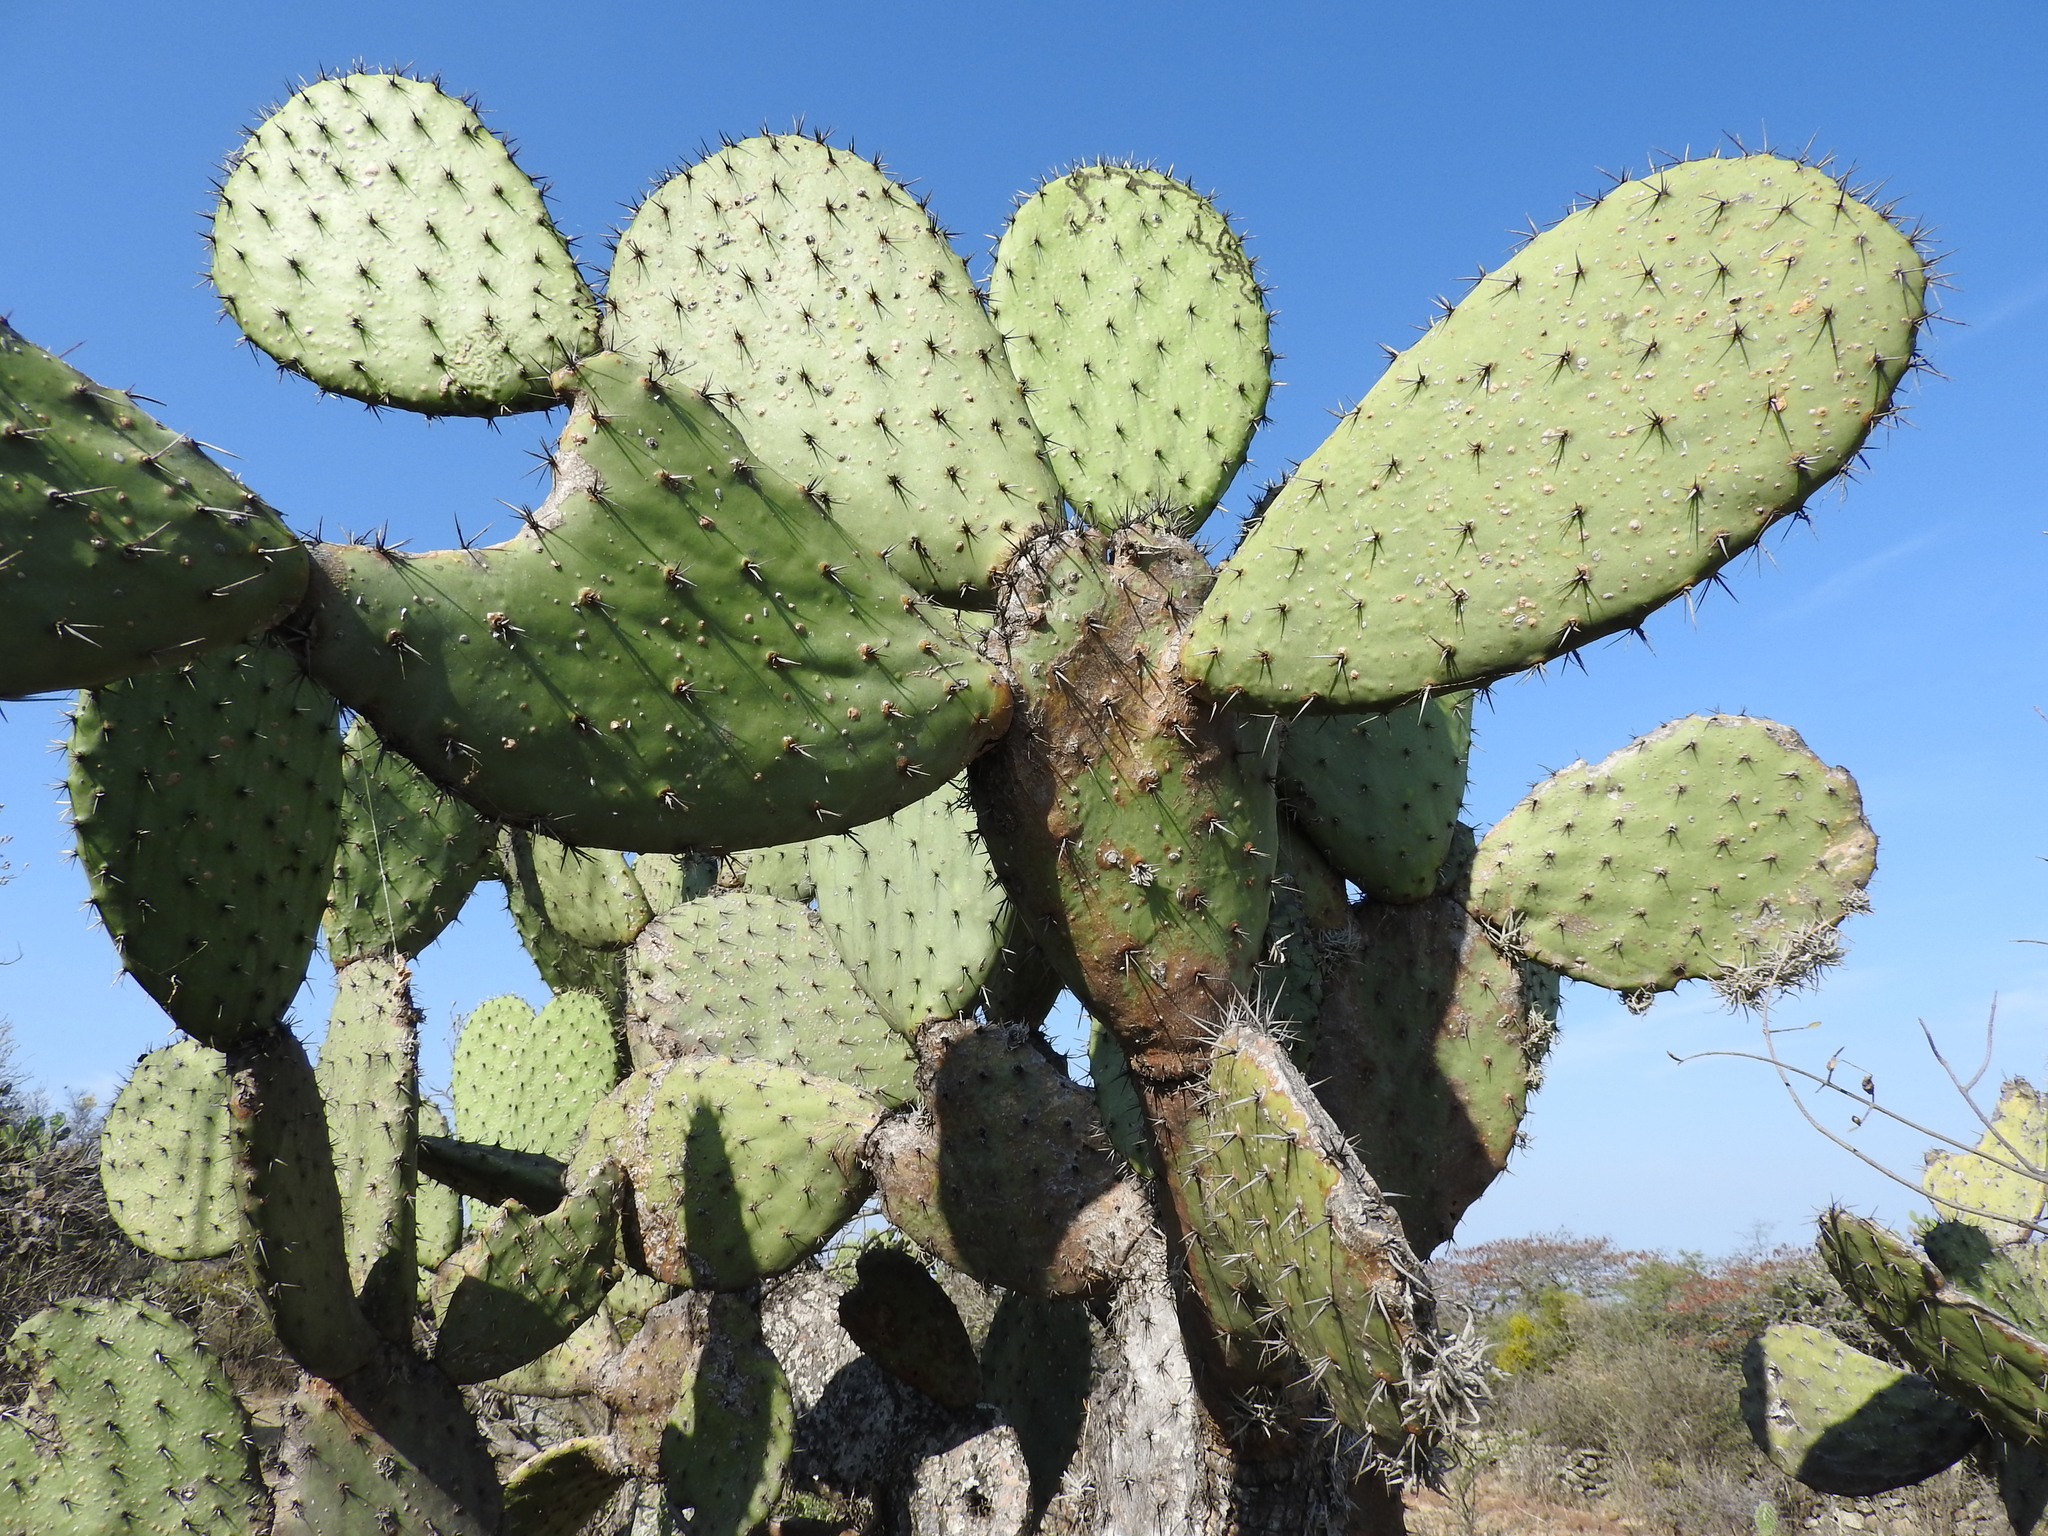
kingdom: Plantae
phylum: Tracheophyta
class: Magnoliopsida
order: Caryophyllales
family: Cactaceae
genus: Opuntia
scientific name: Opuntia jaliscana
